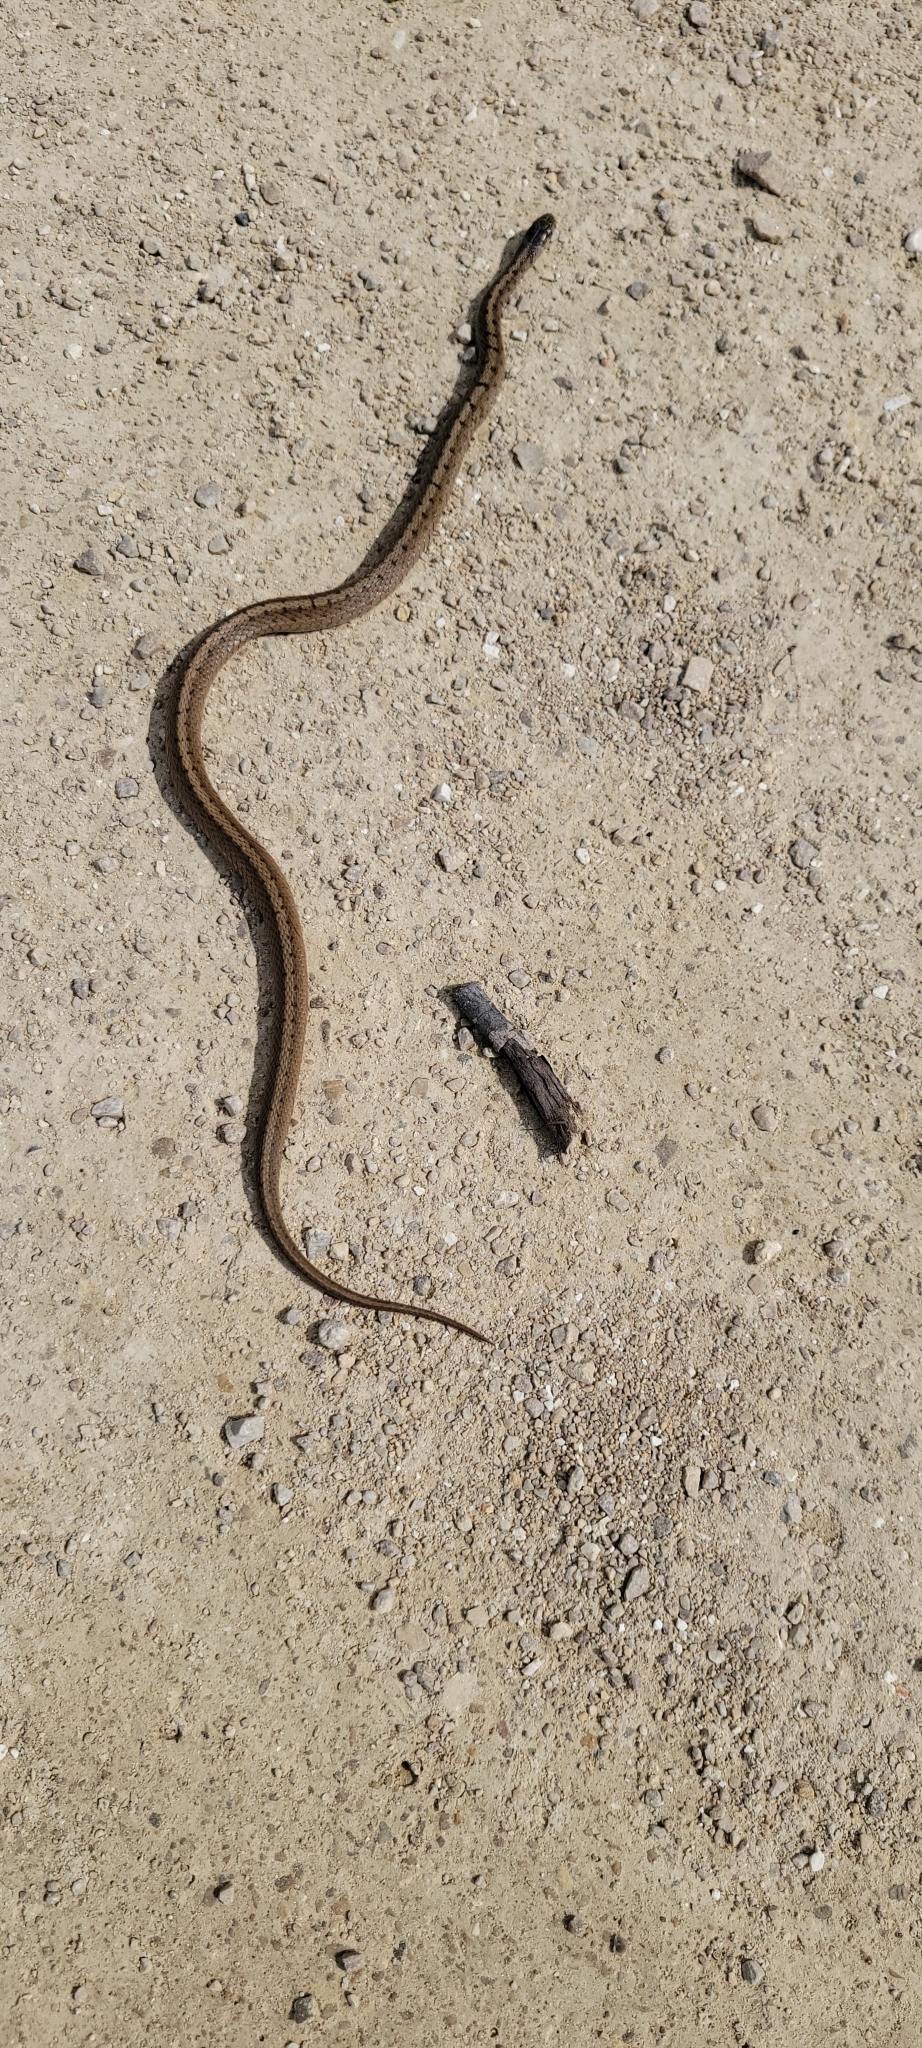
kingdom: Animalia
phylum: Chordata
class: Squamata
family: Colubridae
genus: Storeria
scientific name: Storeria dekayi
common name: (dekay’s) brown snake
